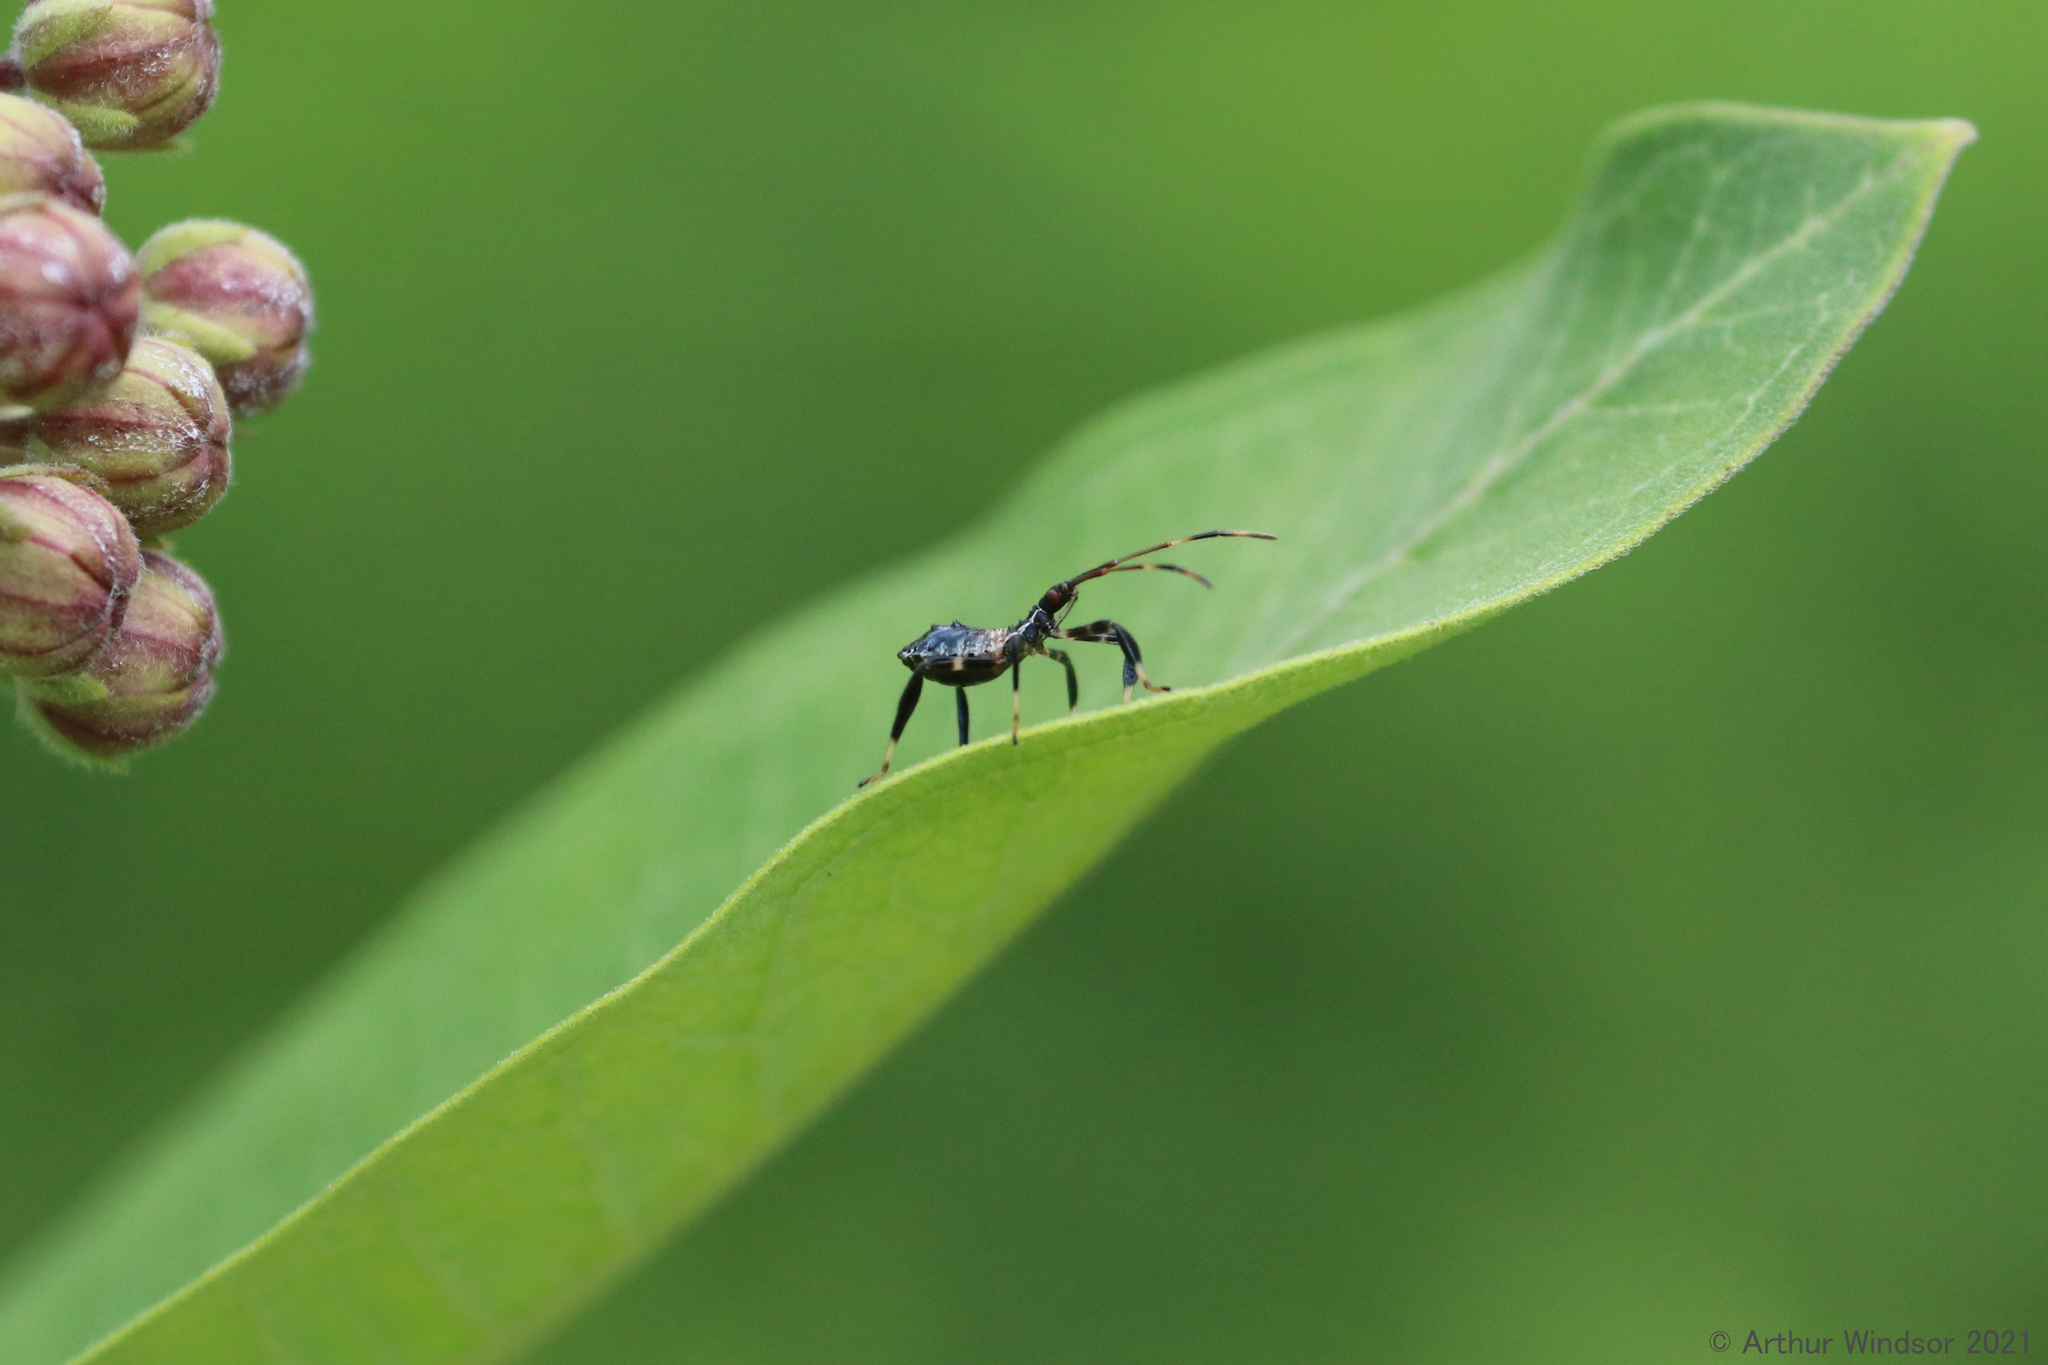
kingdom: Animalia
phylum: Arthropoda
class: Insecta
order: Hemiptera
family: Coreidae
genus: Acanthocephala
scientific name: Acanthocephala terminalis
